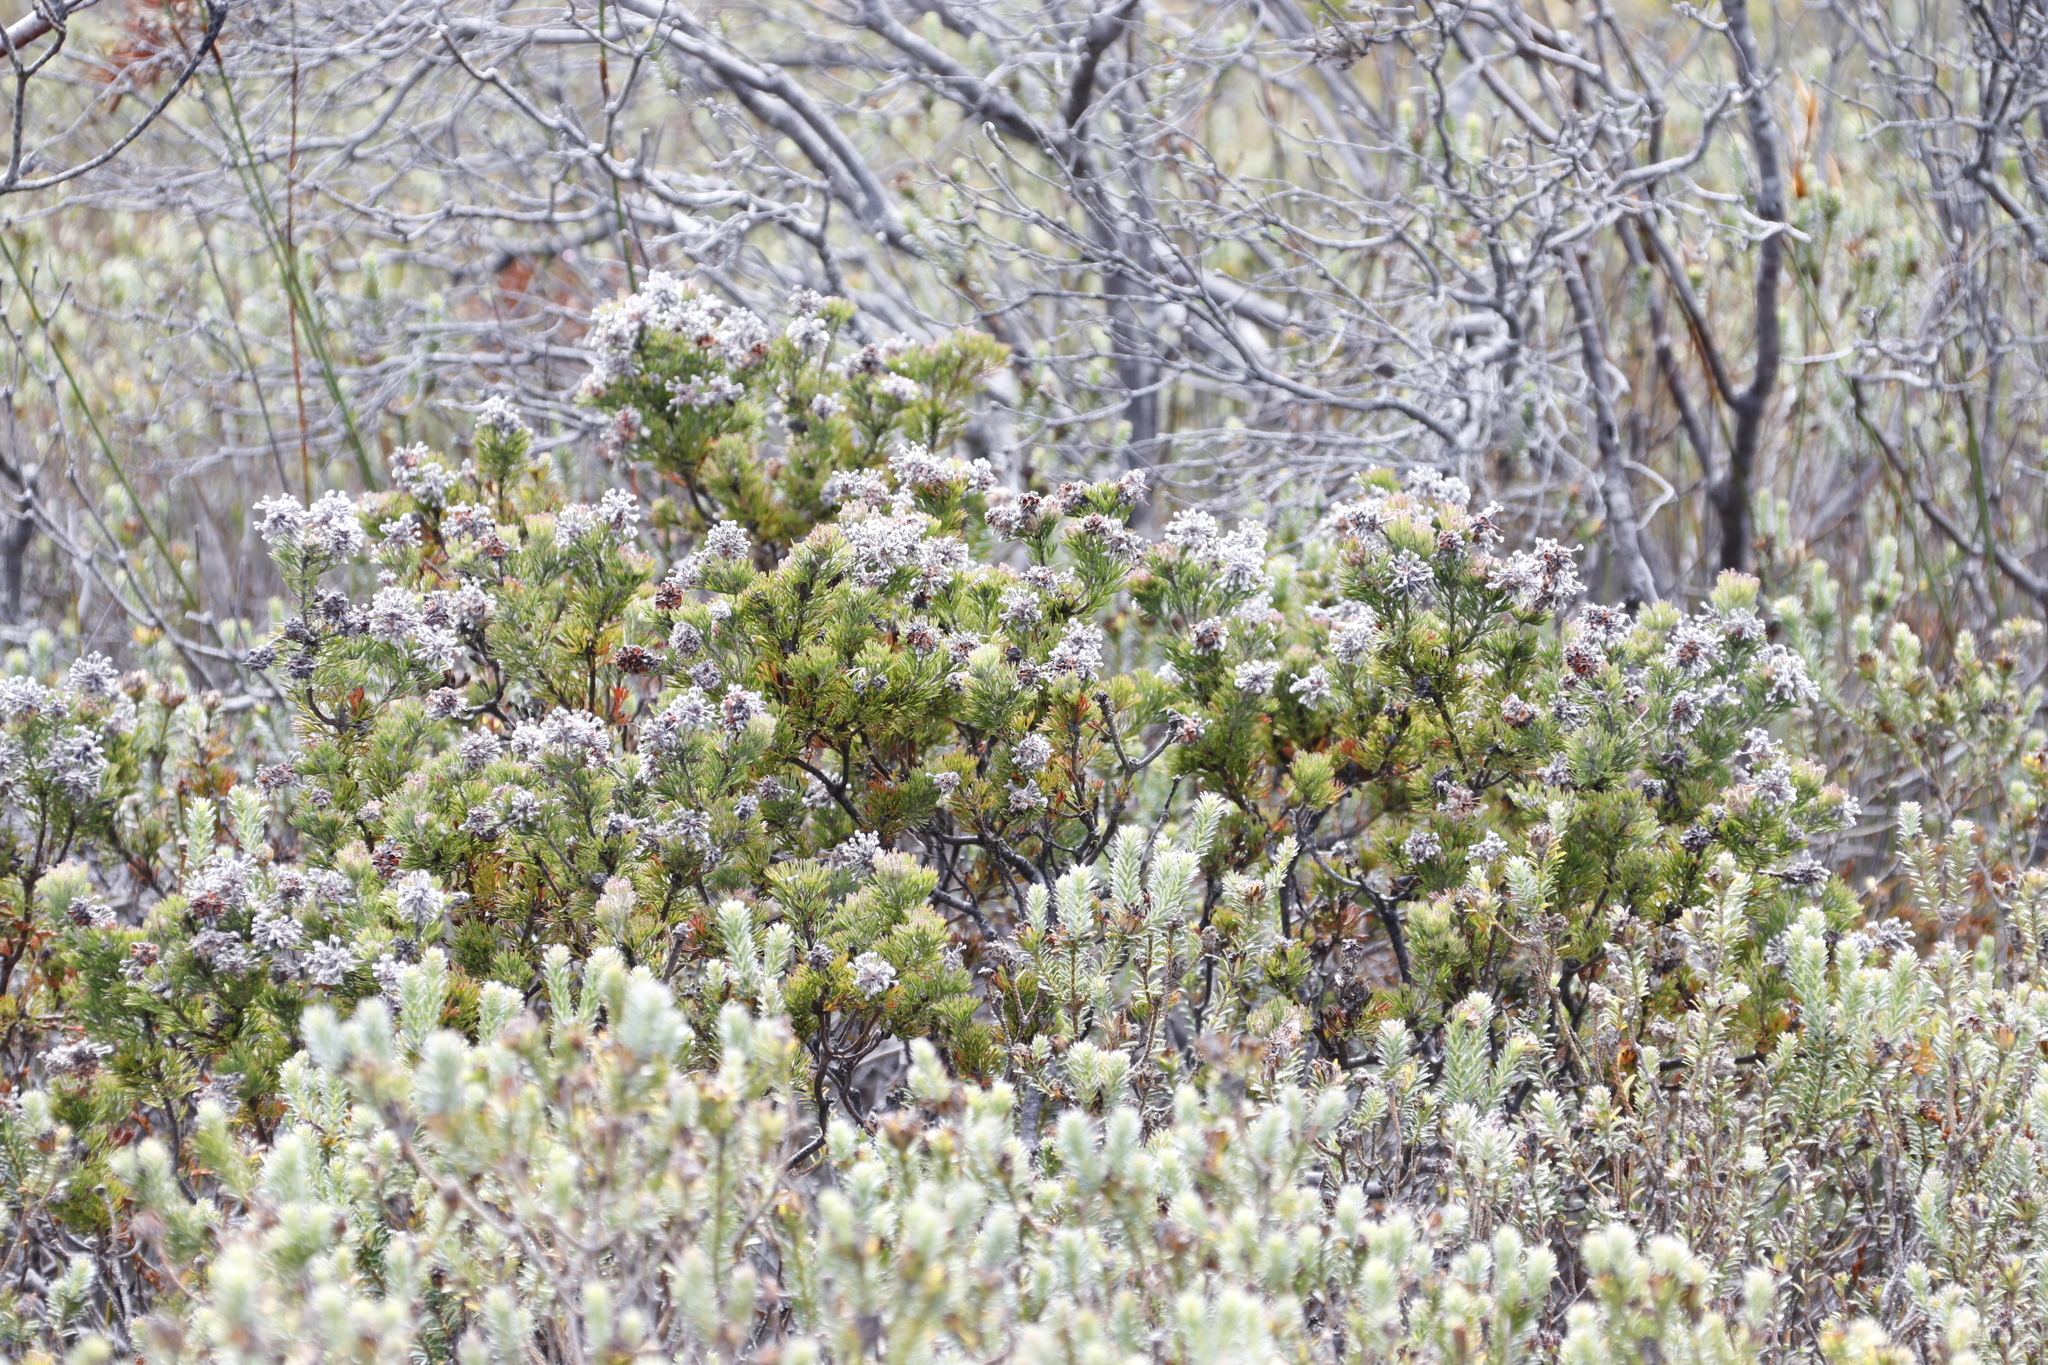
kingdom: Plantae
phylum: Tracheophyta
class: Magnoliopsida
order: Proteales
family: Proteaceae
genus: Paranomus
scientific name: Paranomus abrotanifolius
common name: Bredasdorp sceptre
